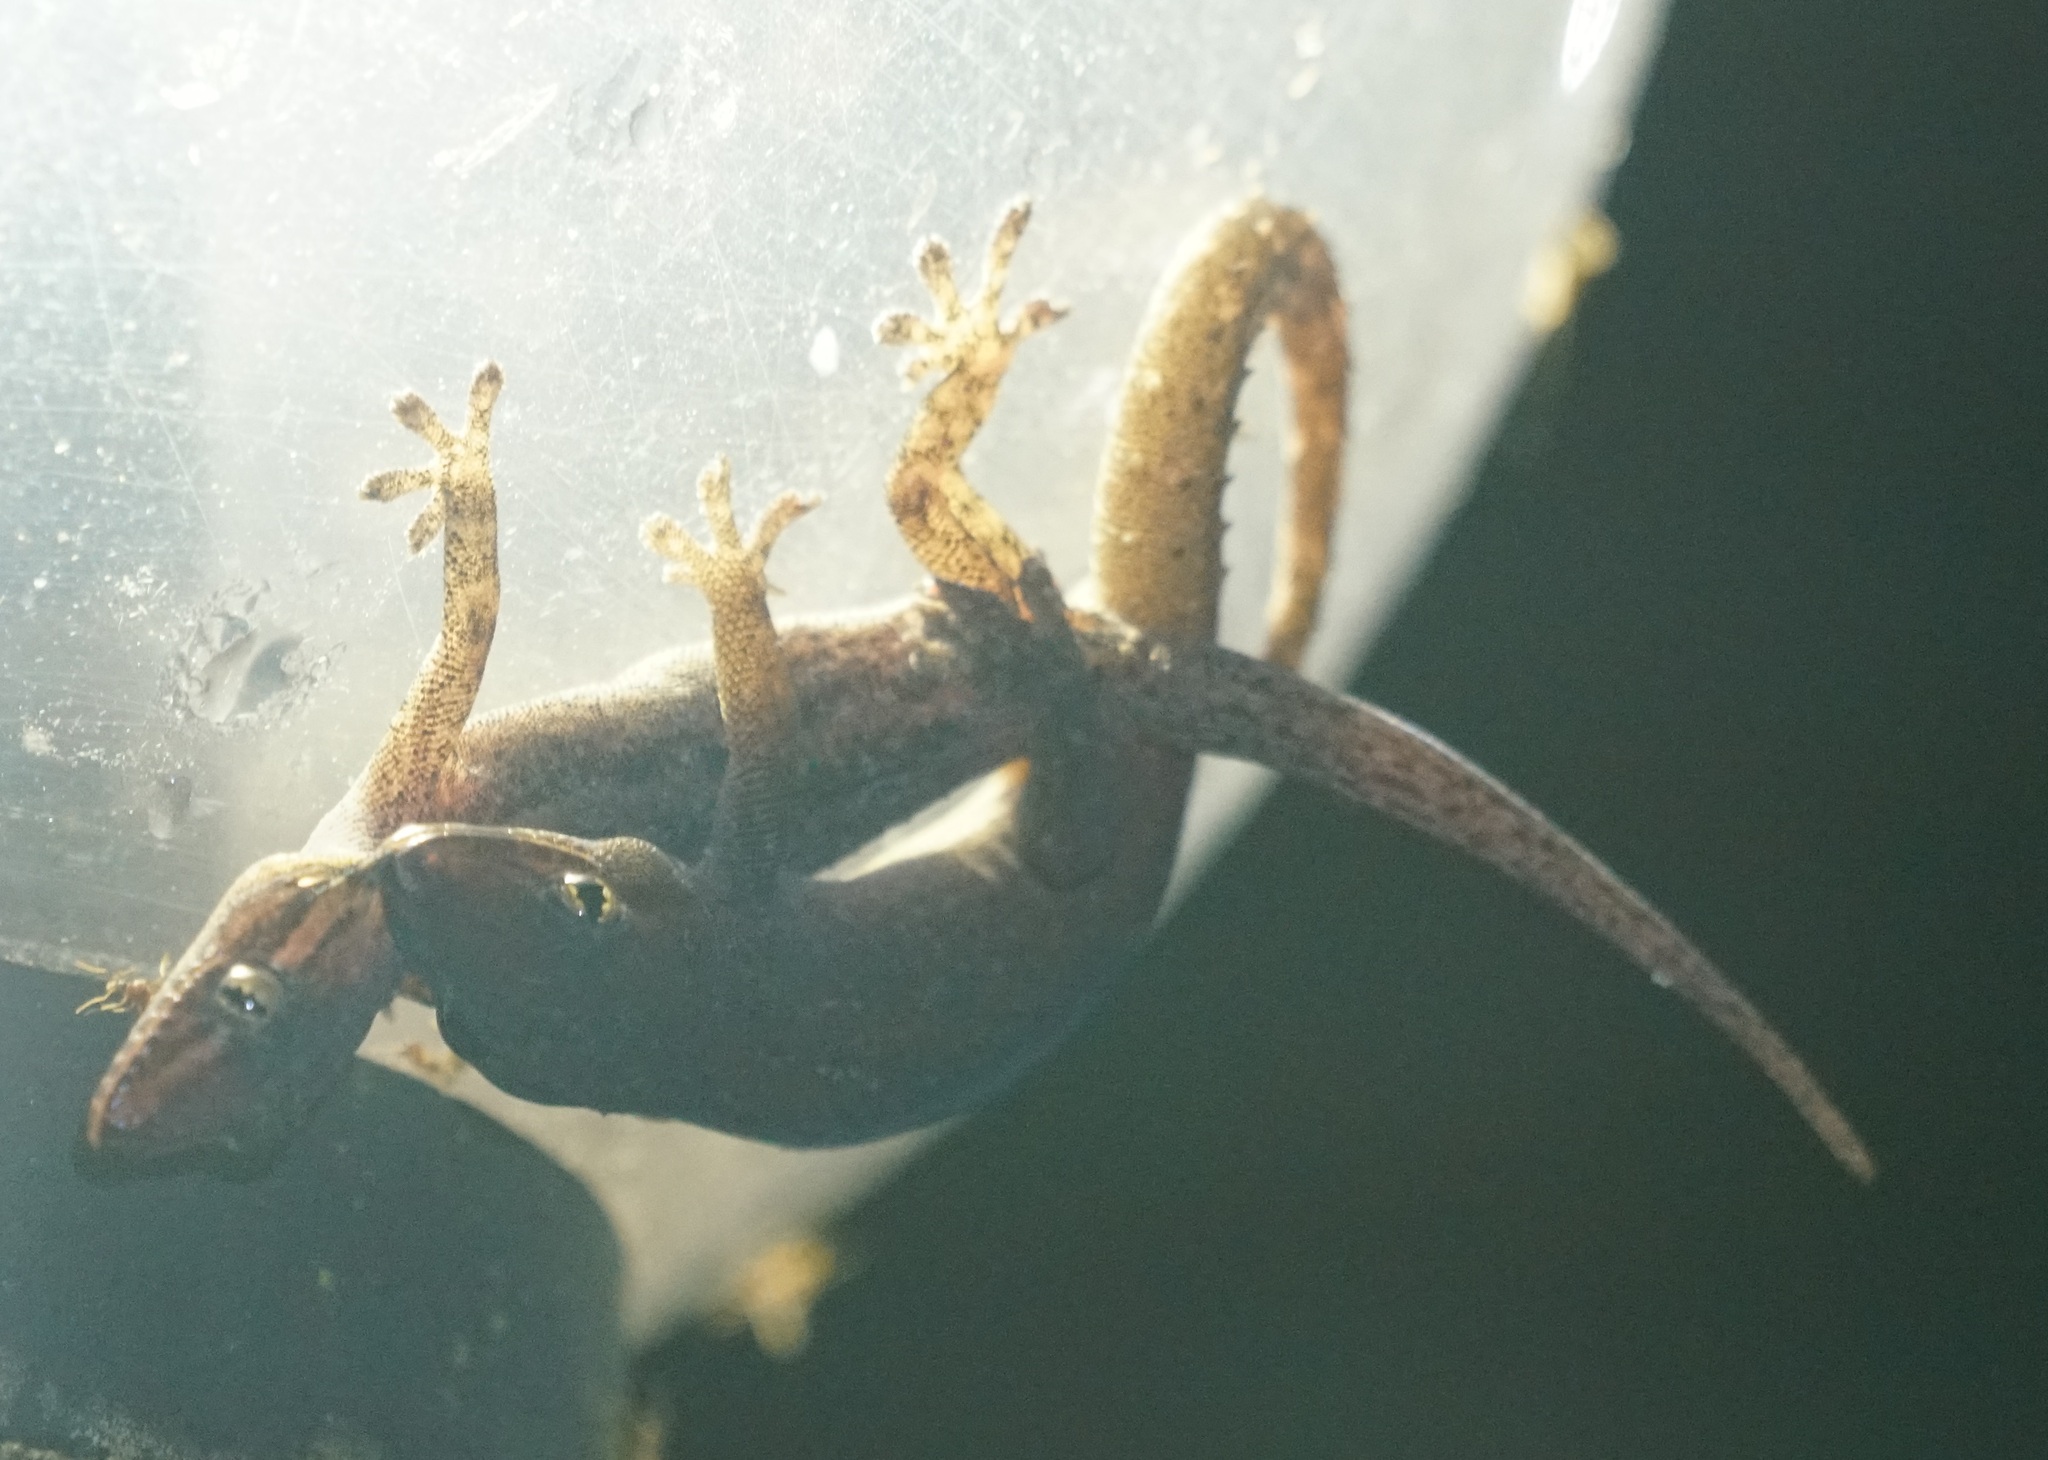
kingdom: Animalia
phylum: Chordata
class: Squamata
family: Gekkonidae
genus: Hemidactylus
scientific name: Hemidactylus frenatus
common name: Common house gecko
